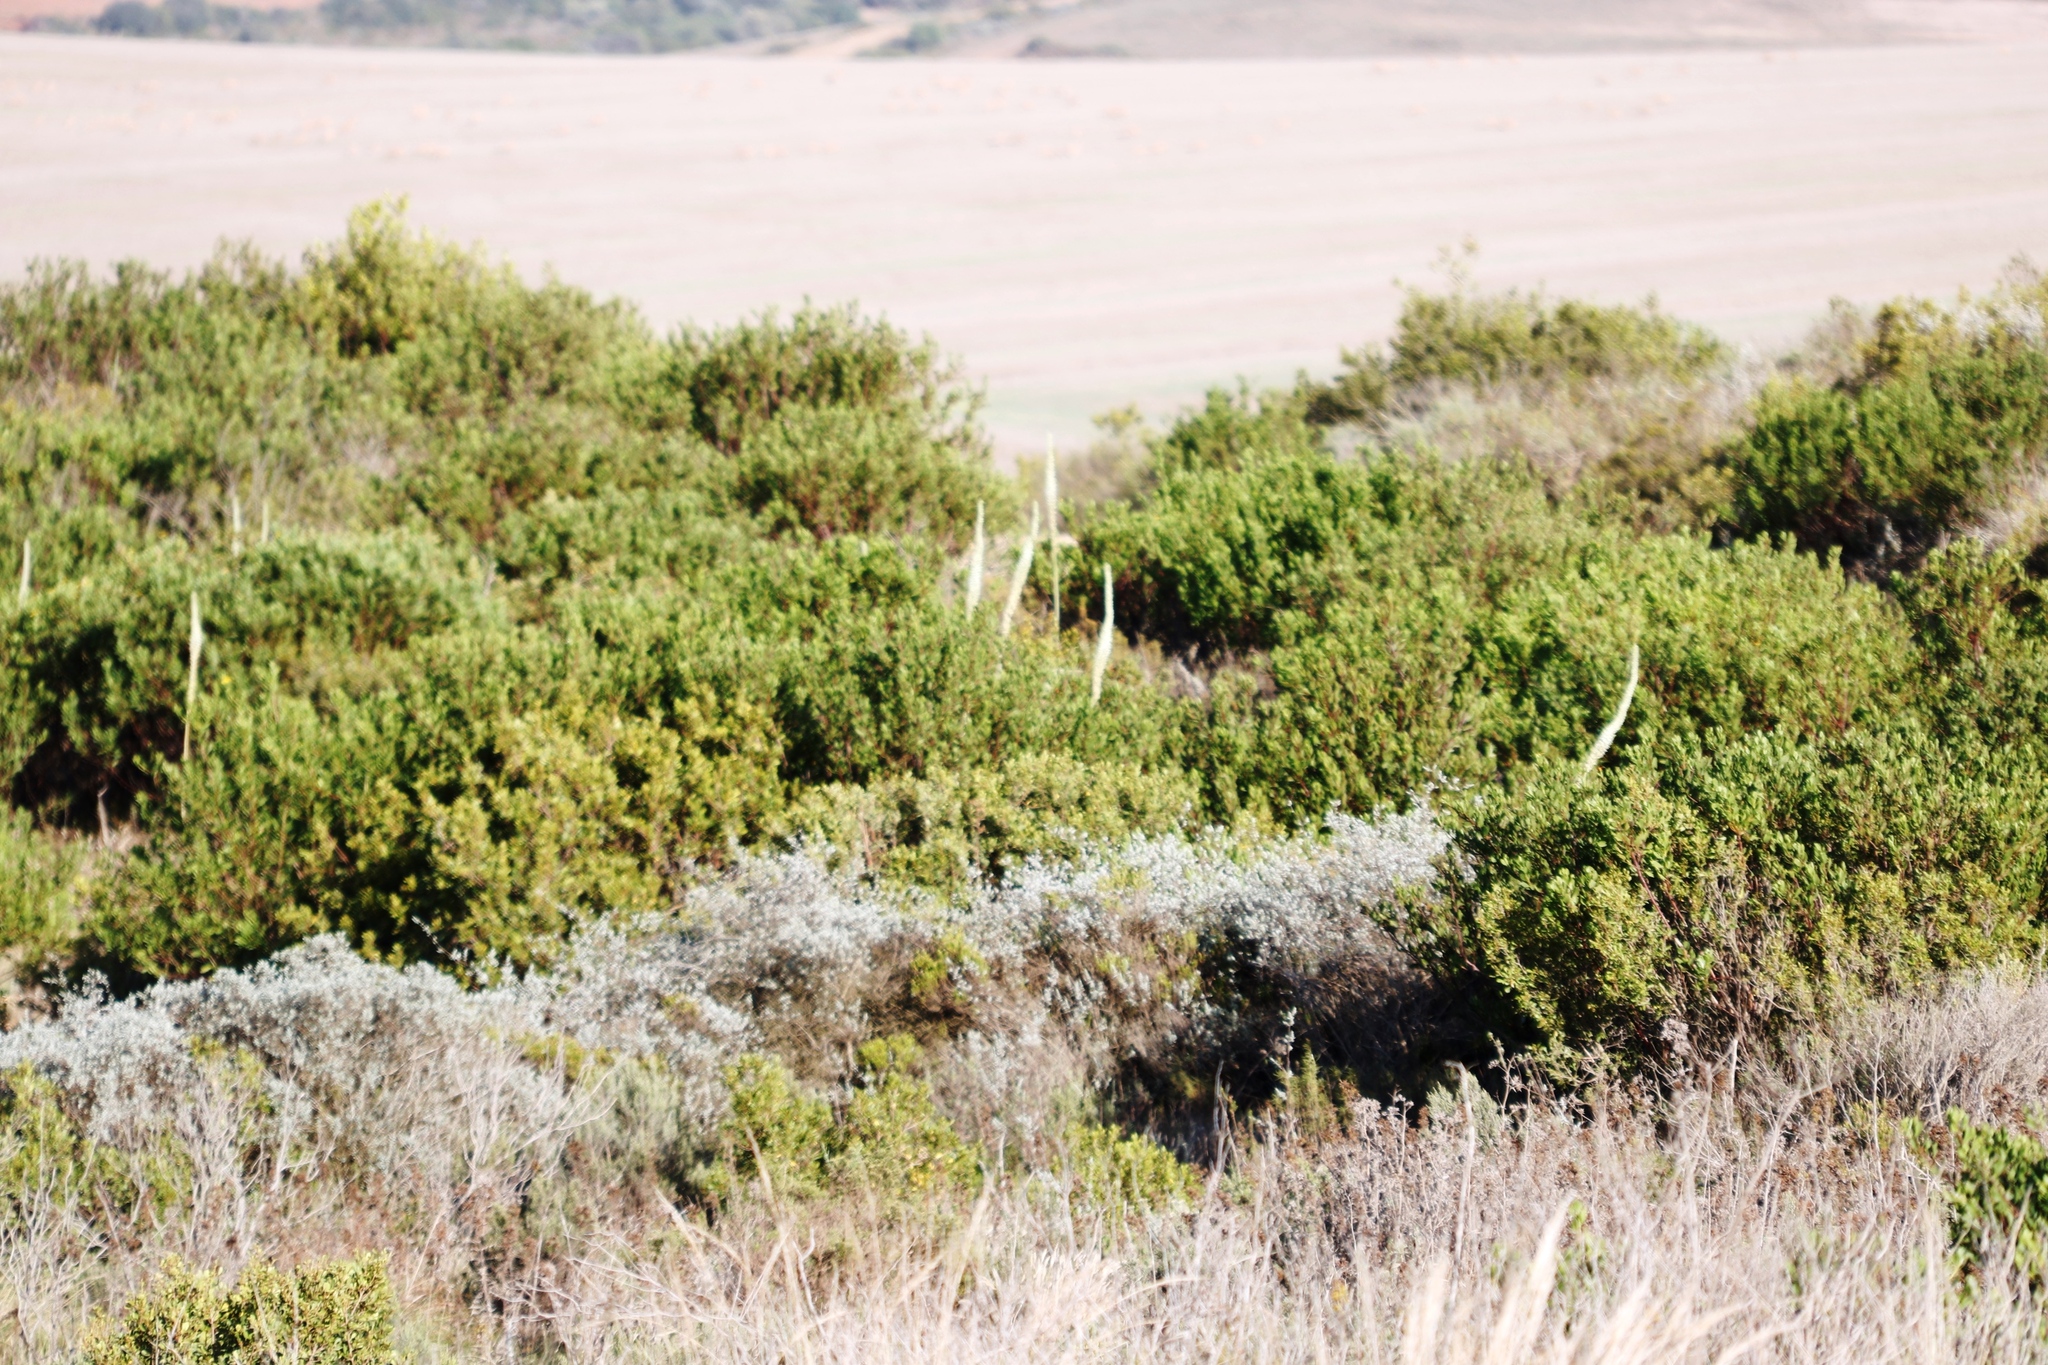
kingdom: Plantae
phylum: Tracheophyta
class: Liliopsida
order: Asparagales
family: Asparagaceae
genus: Drimia
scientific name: Drimia capensis
